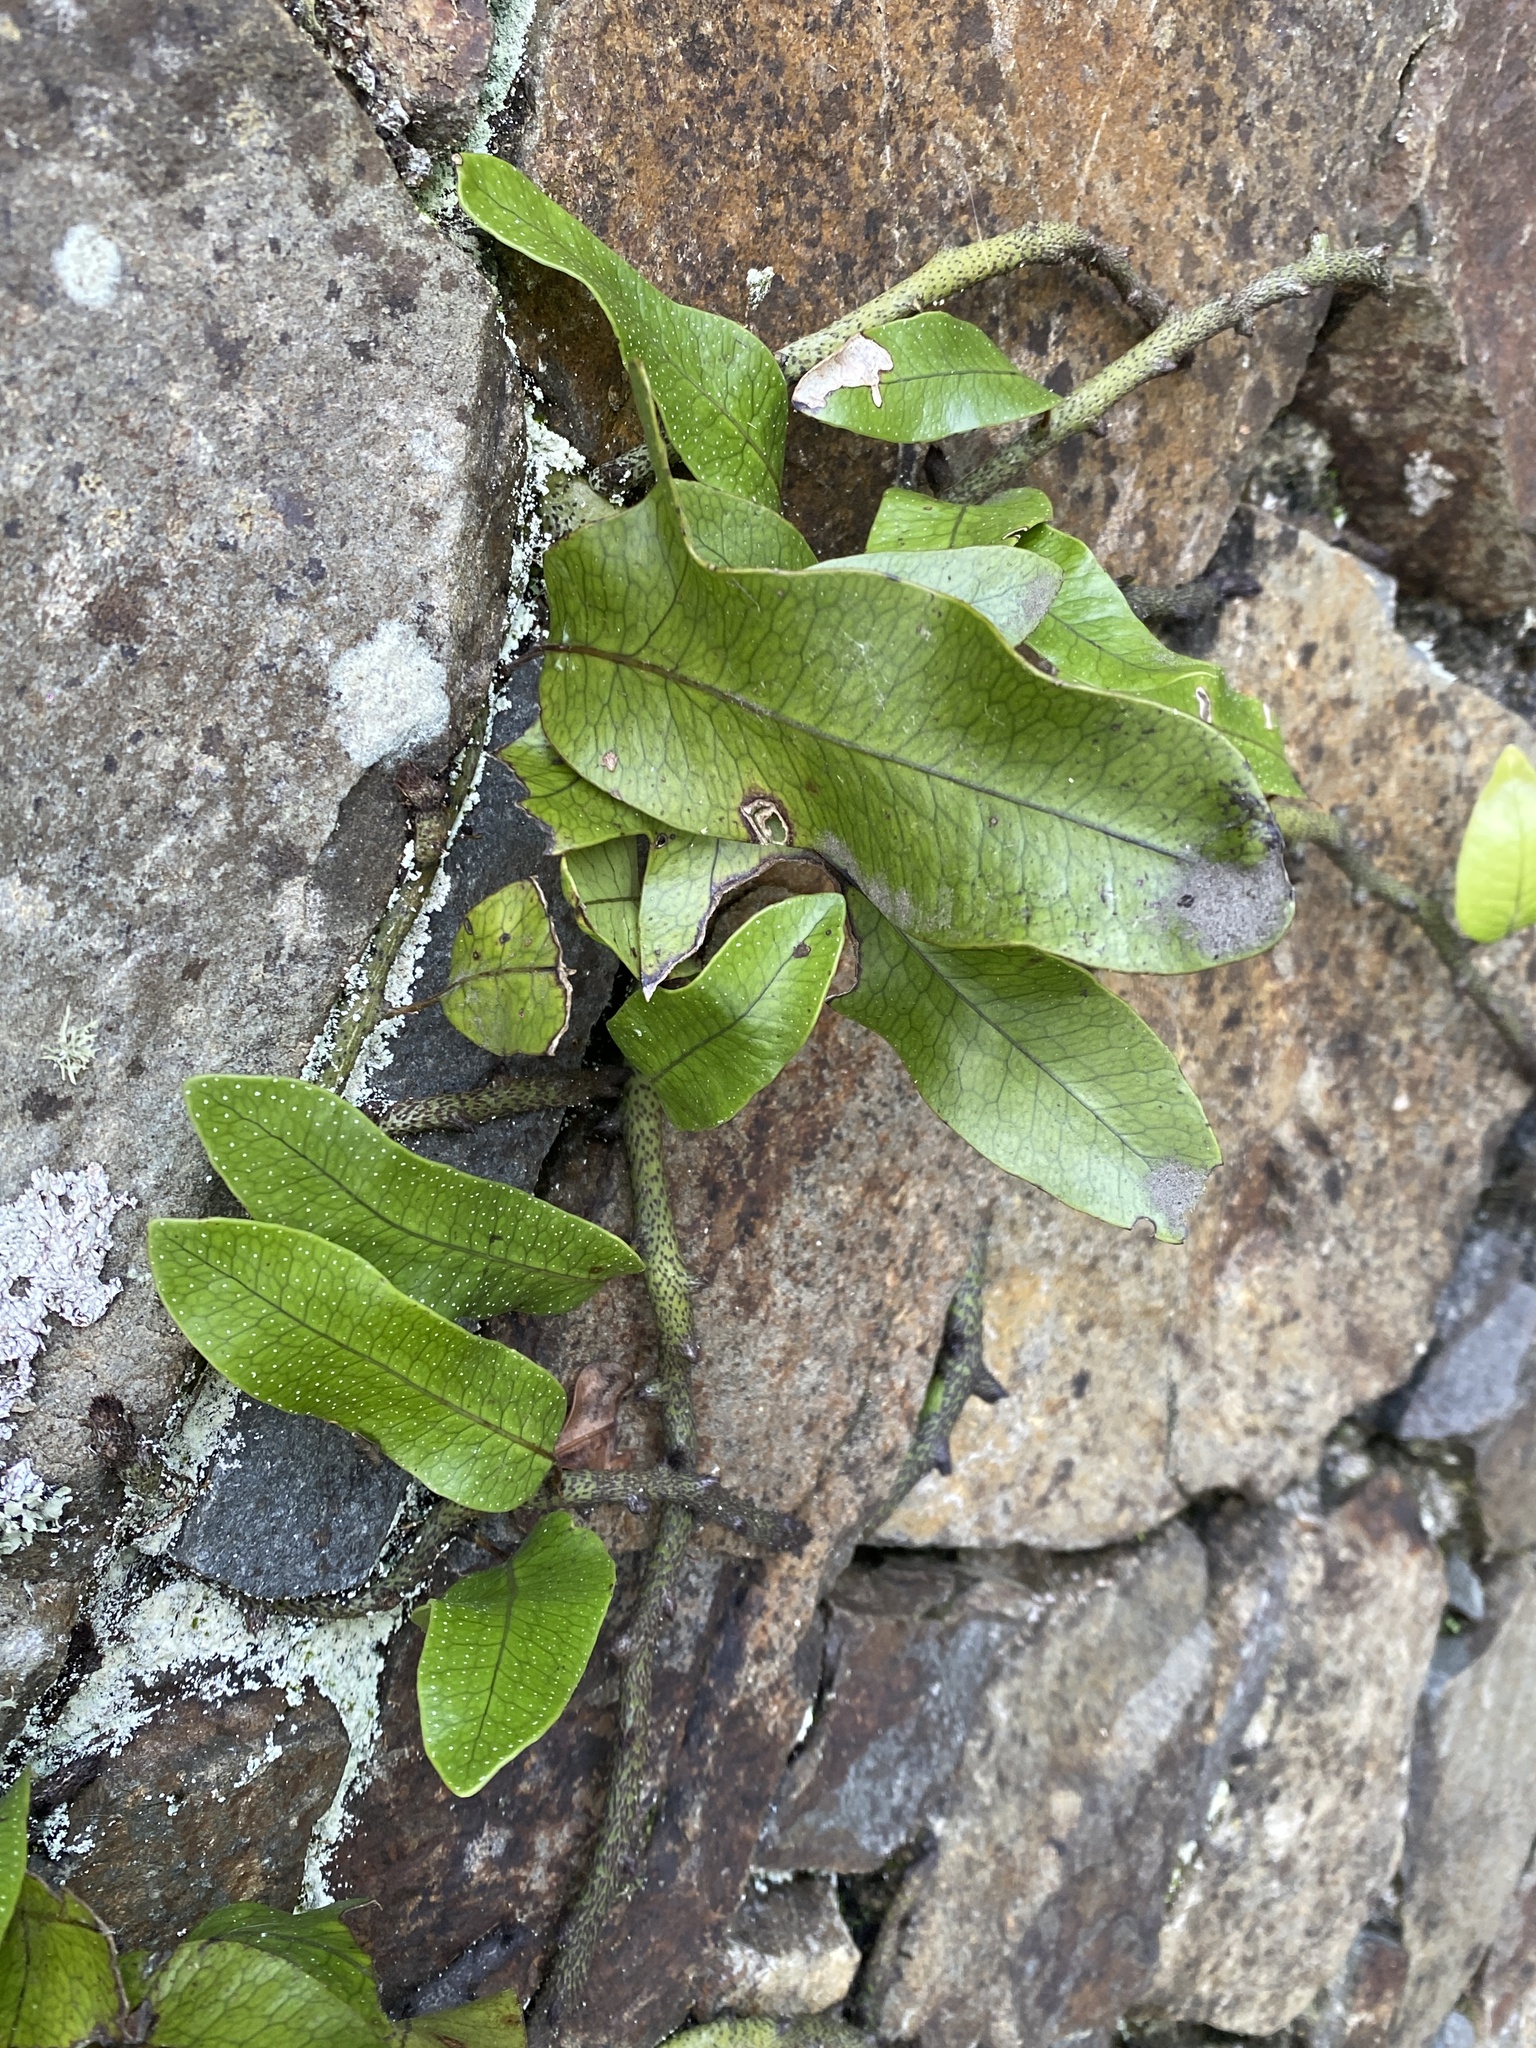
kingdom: Plantae
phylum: Tracheophyta
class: Polypodiopsida
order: Polypodiales
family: Polypodiaceae
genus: Lecanopteris
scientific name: Lecanopteris pustulata
